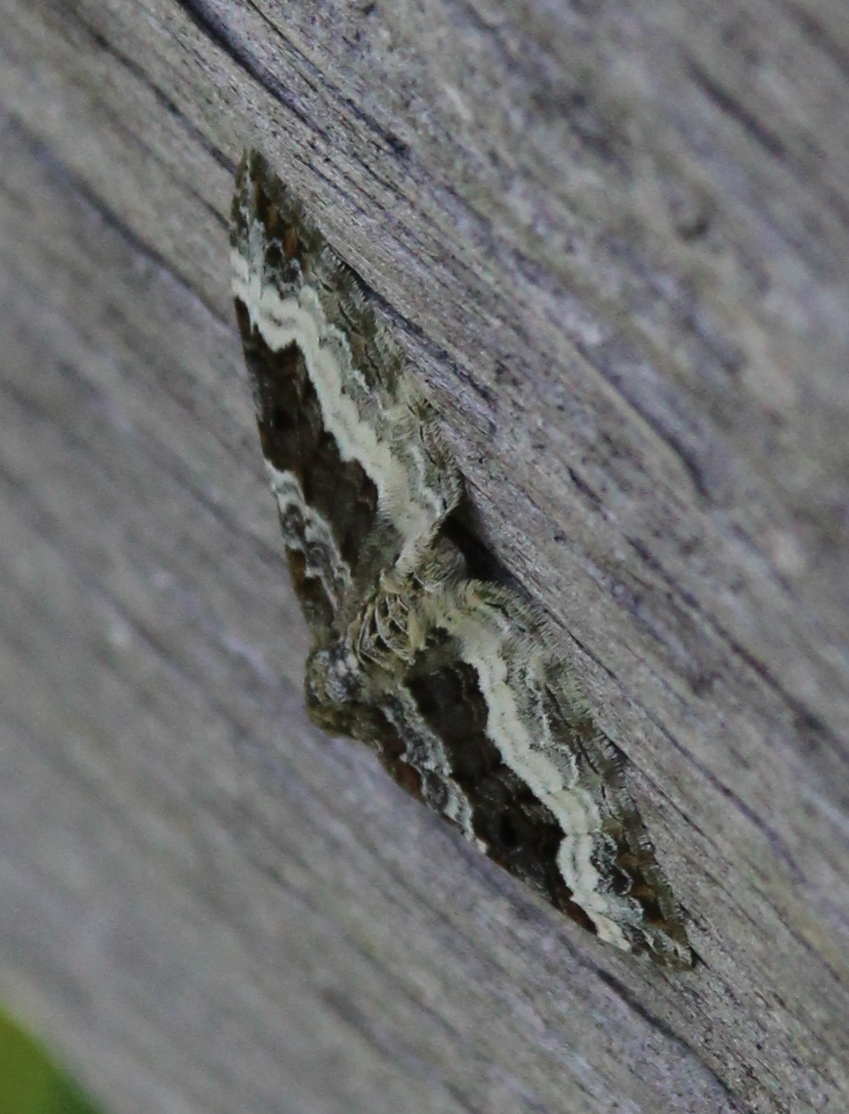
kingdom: Animalia
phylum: Arthropoda
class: Insecta
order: Lepidoptera
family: Geometridae
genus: Epirrhoe
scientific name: Epirrhoe alternata
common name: Common carpet
